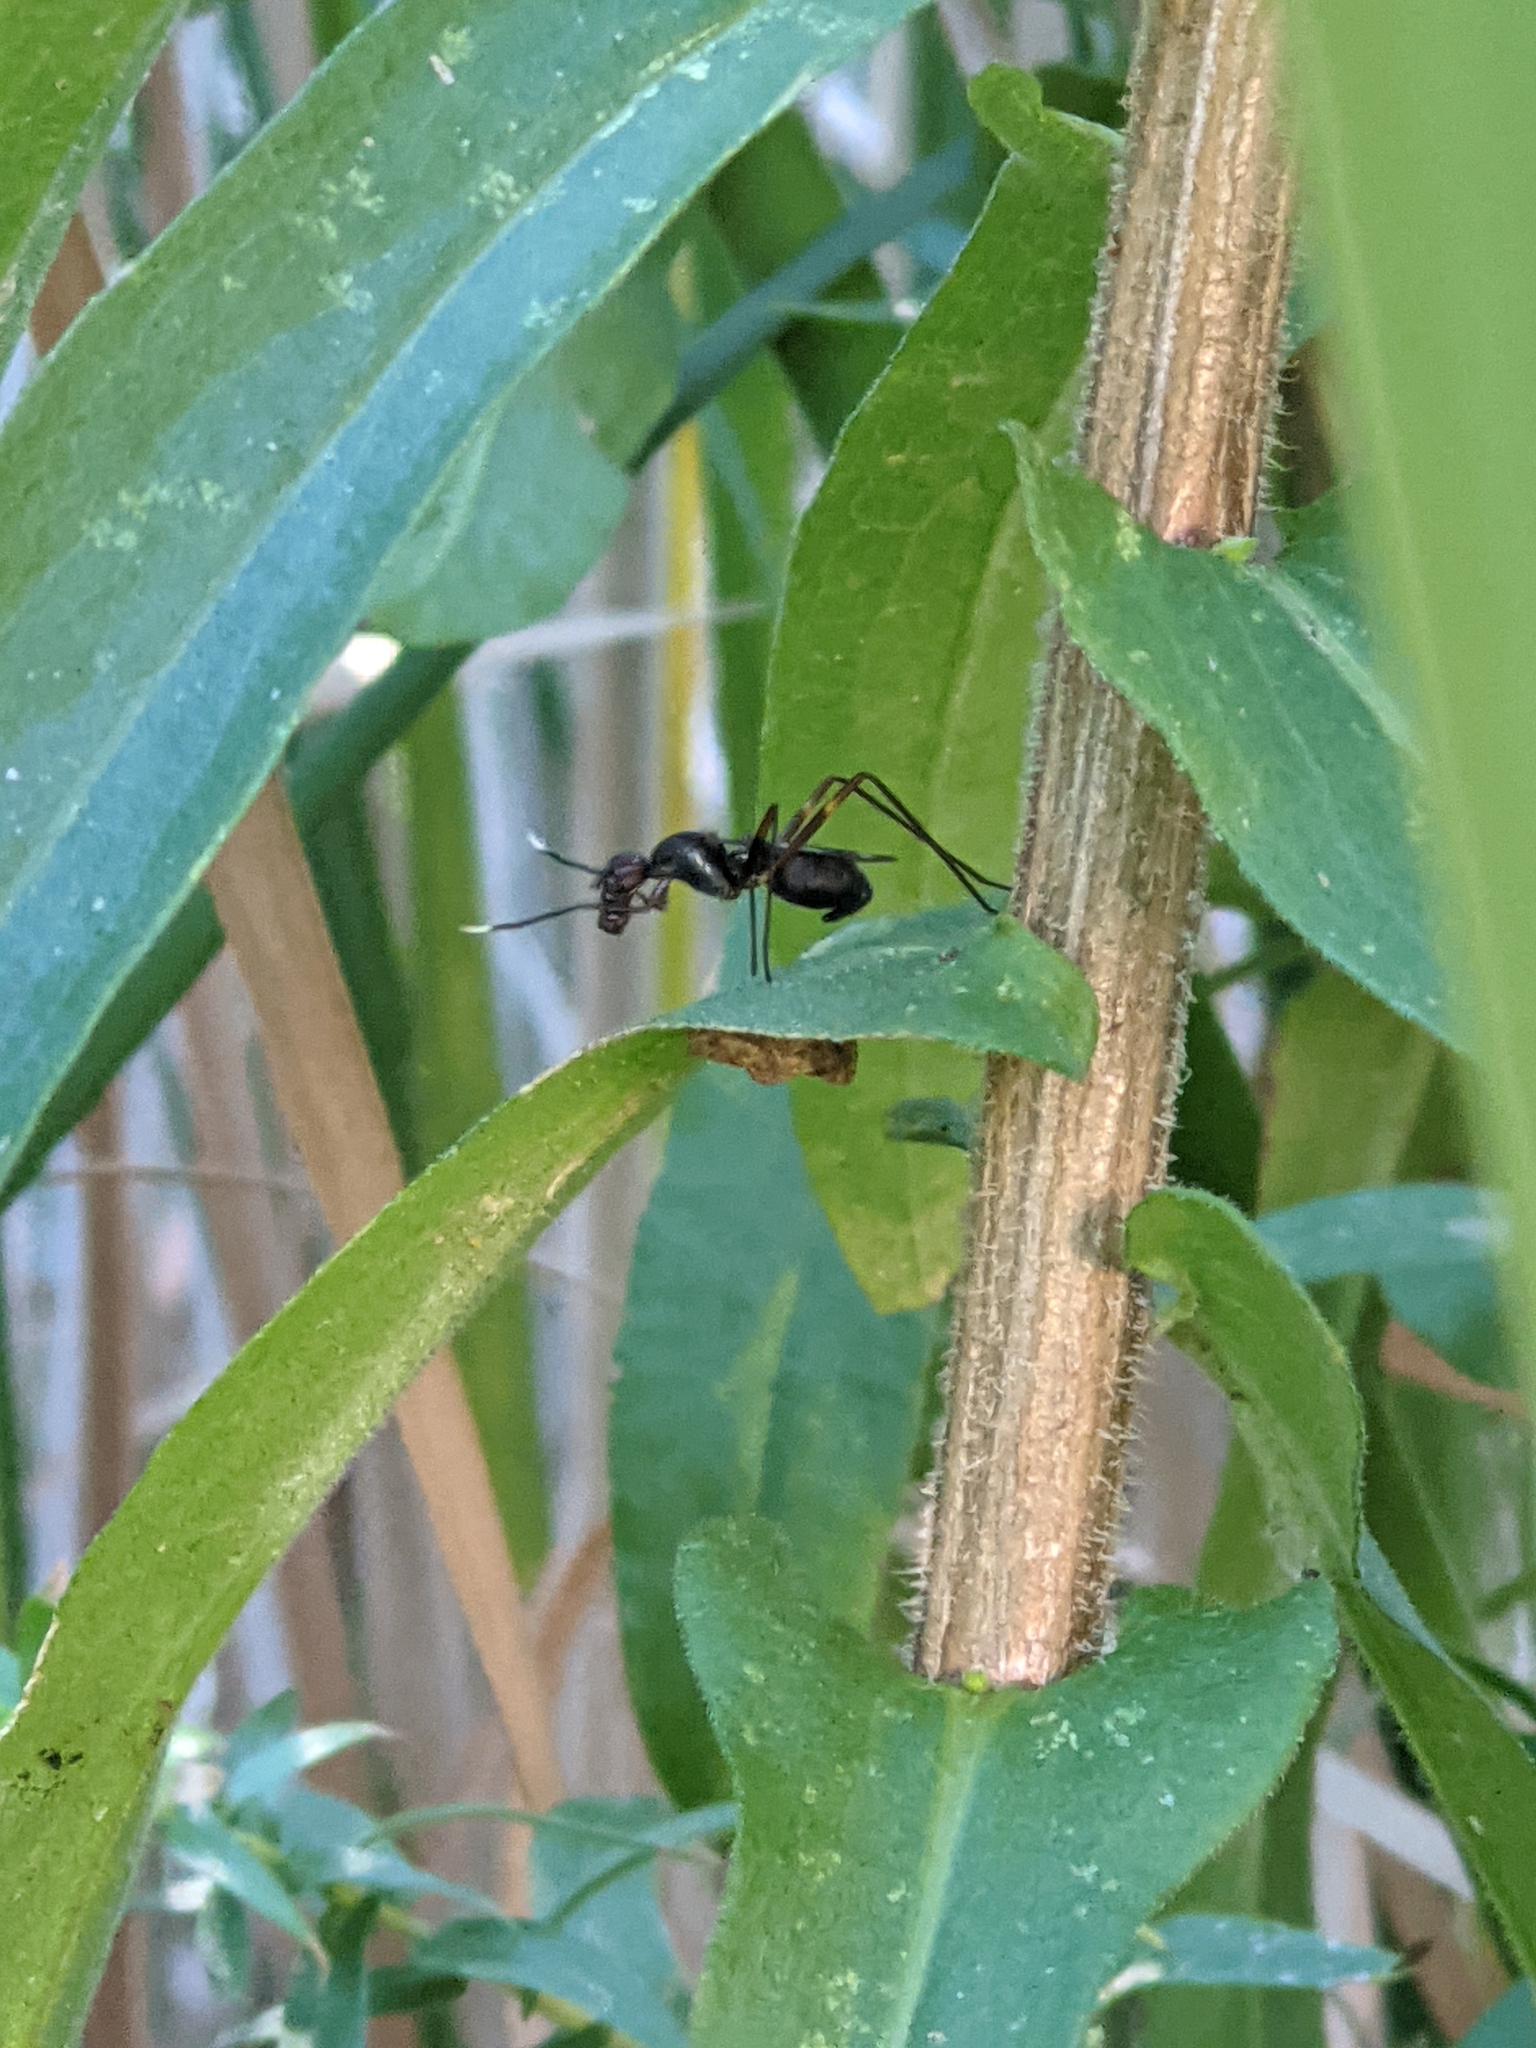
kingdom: Animalia
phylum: Arthropoda
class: Insecta
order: Diptera
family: Micropezidae
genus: Taeniaptera
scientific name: Taeniaptera trivittata
